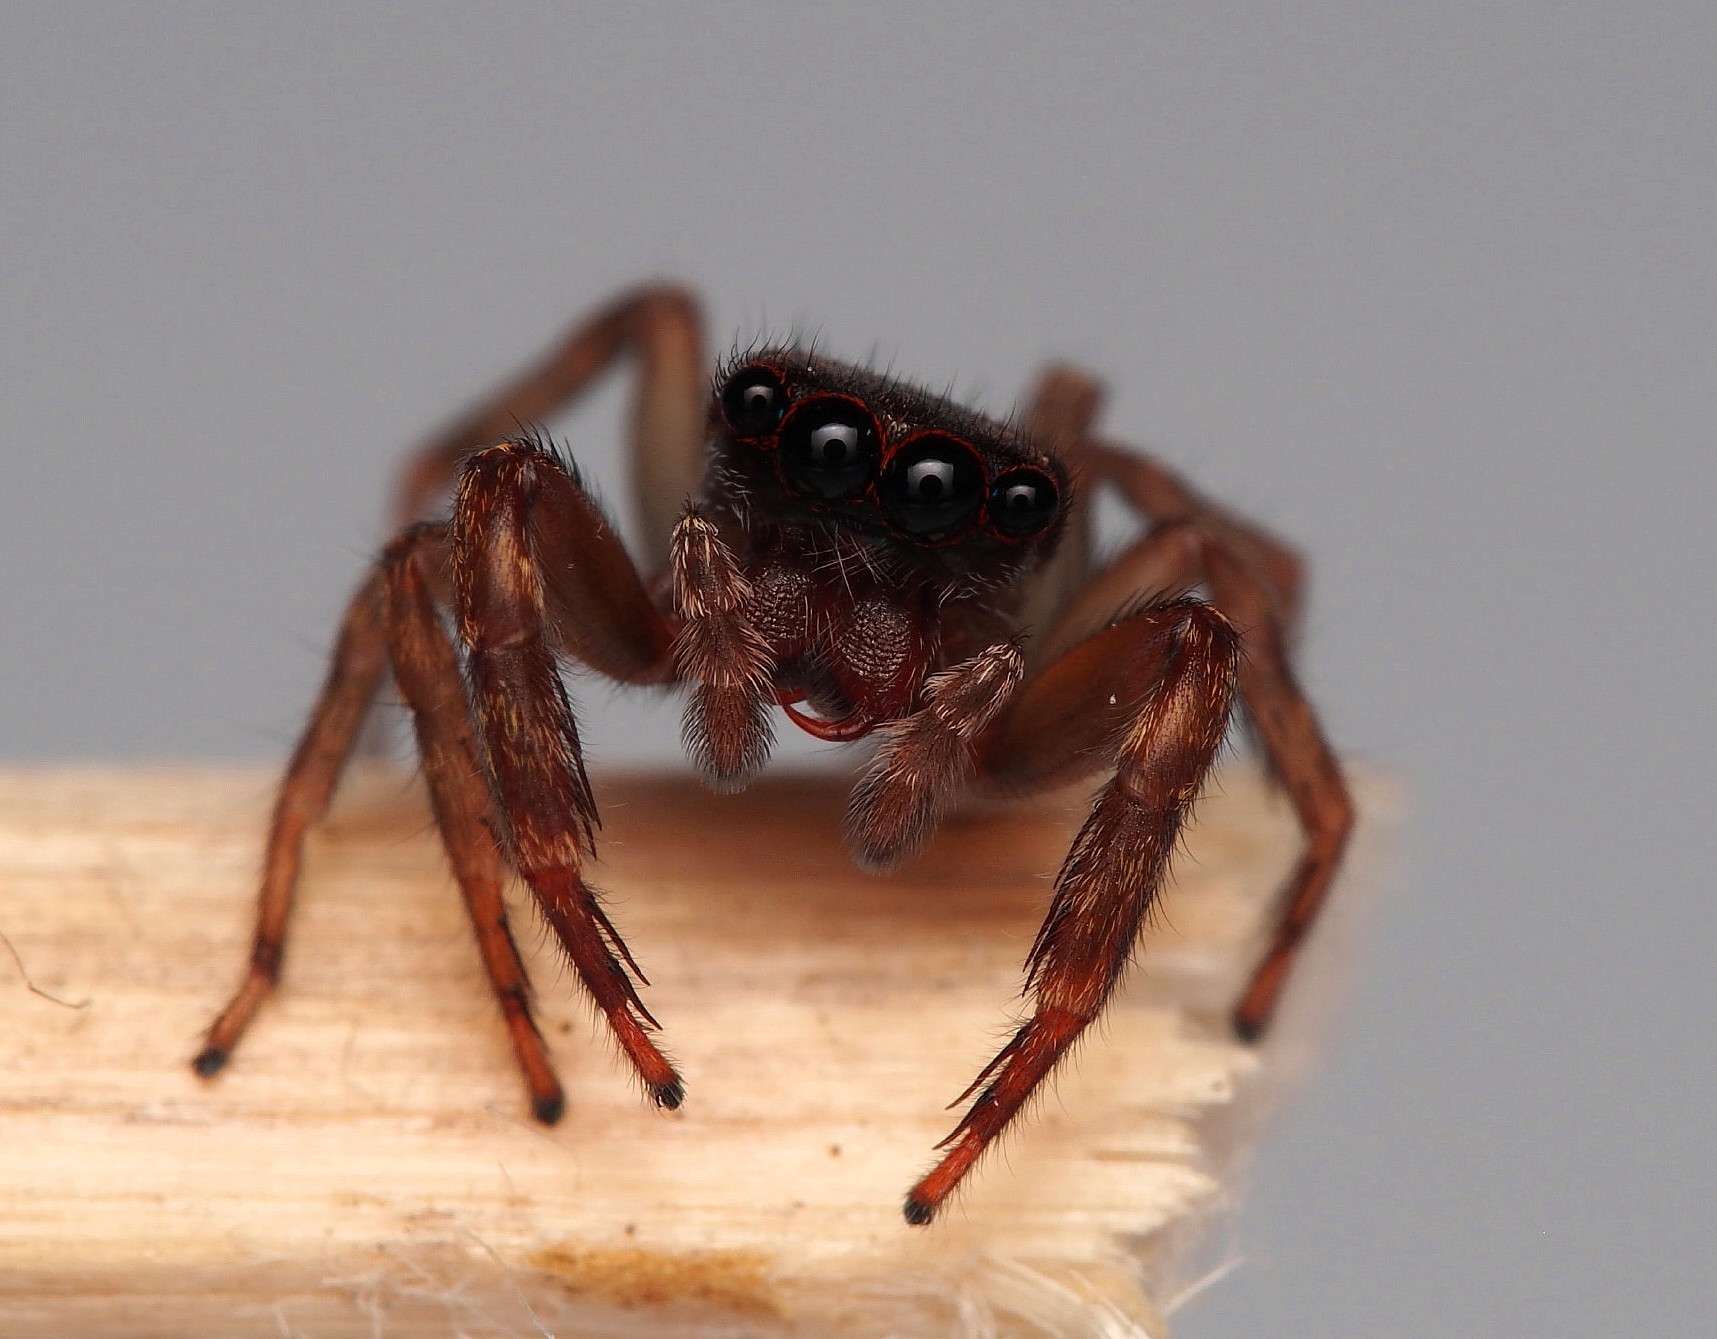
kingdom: Animalia
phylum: Arthropoda
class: Arachnida
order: Araneae
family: Salticidae
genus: Trite
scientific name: Trite auricoma
